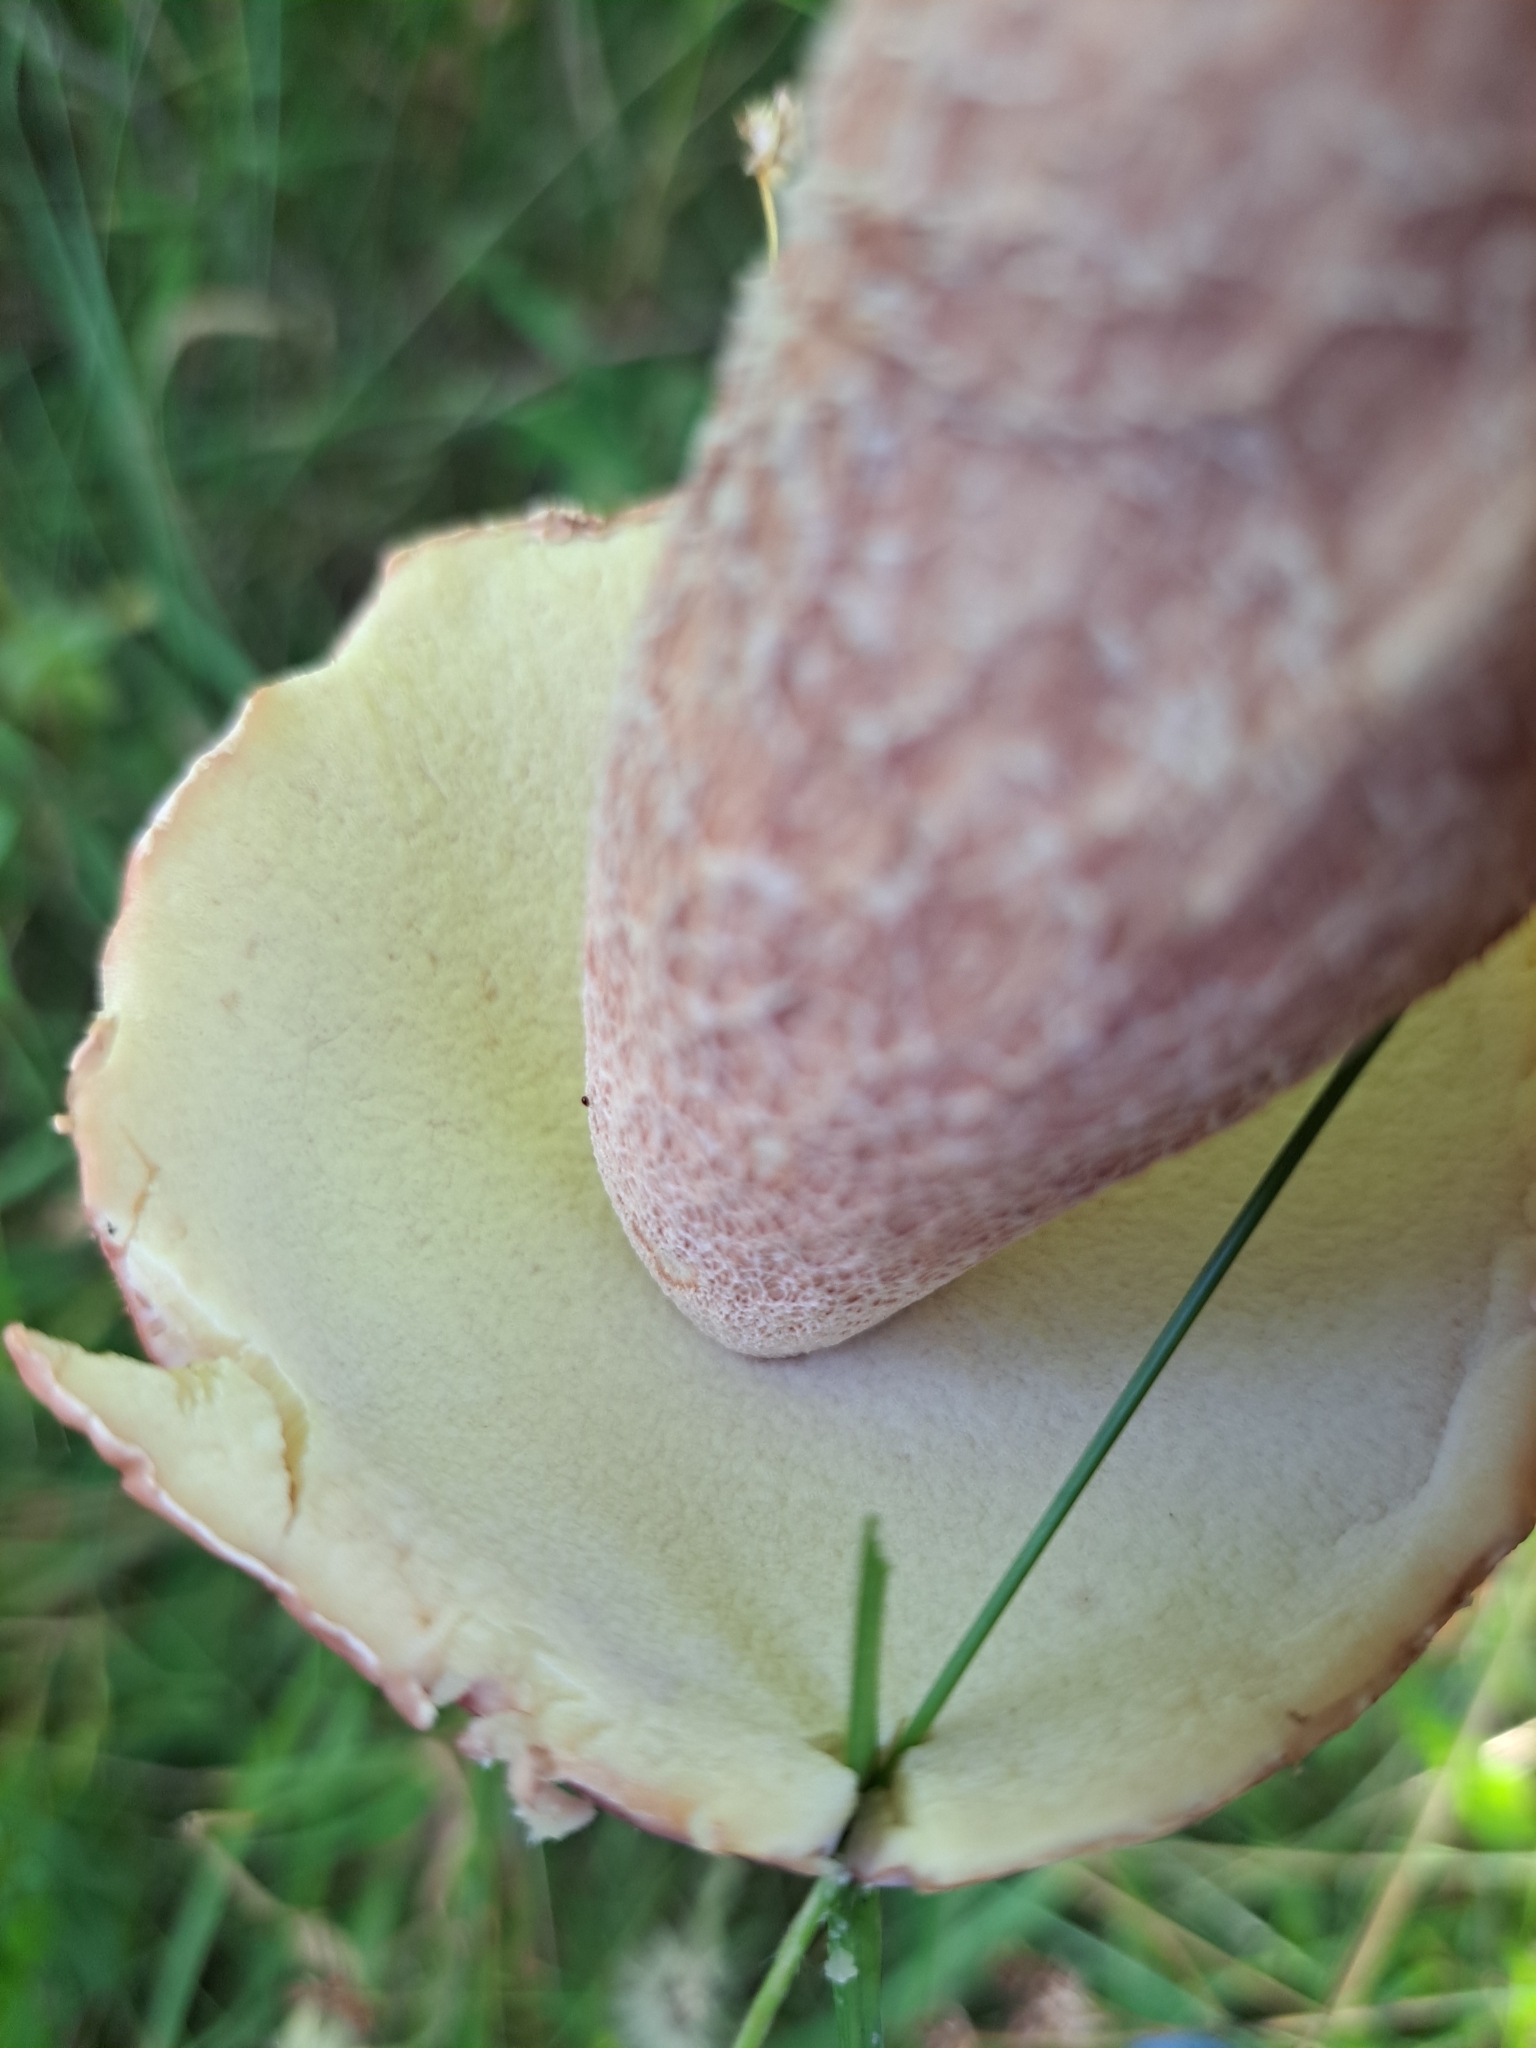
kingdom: Fungi
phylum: Basidiomycota
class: Agaricomycetes
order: Boletales
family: Boletaceae
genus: Xanthoconium
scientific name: Xanthoconium separans
